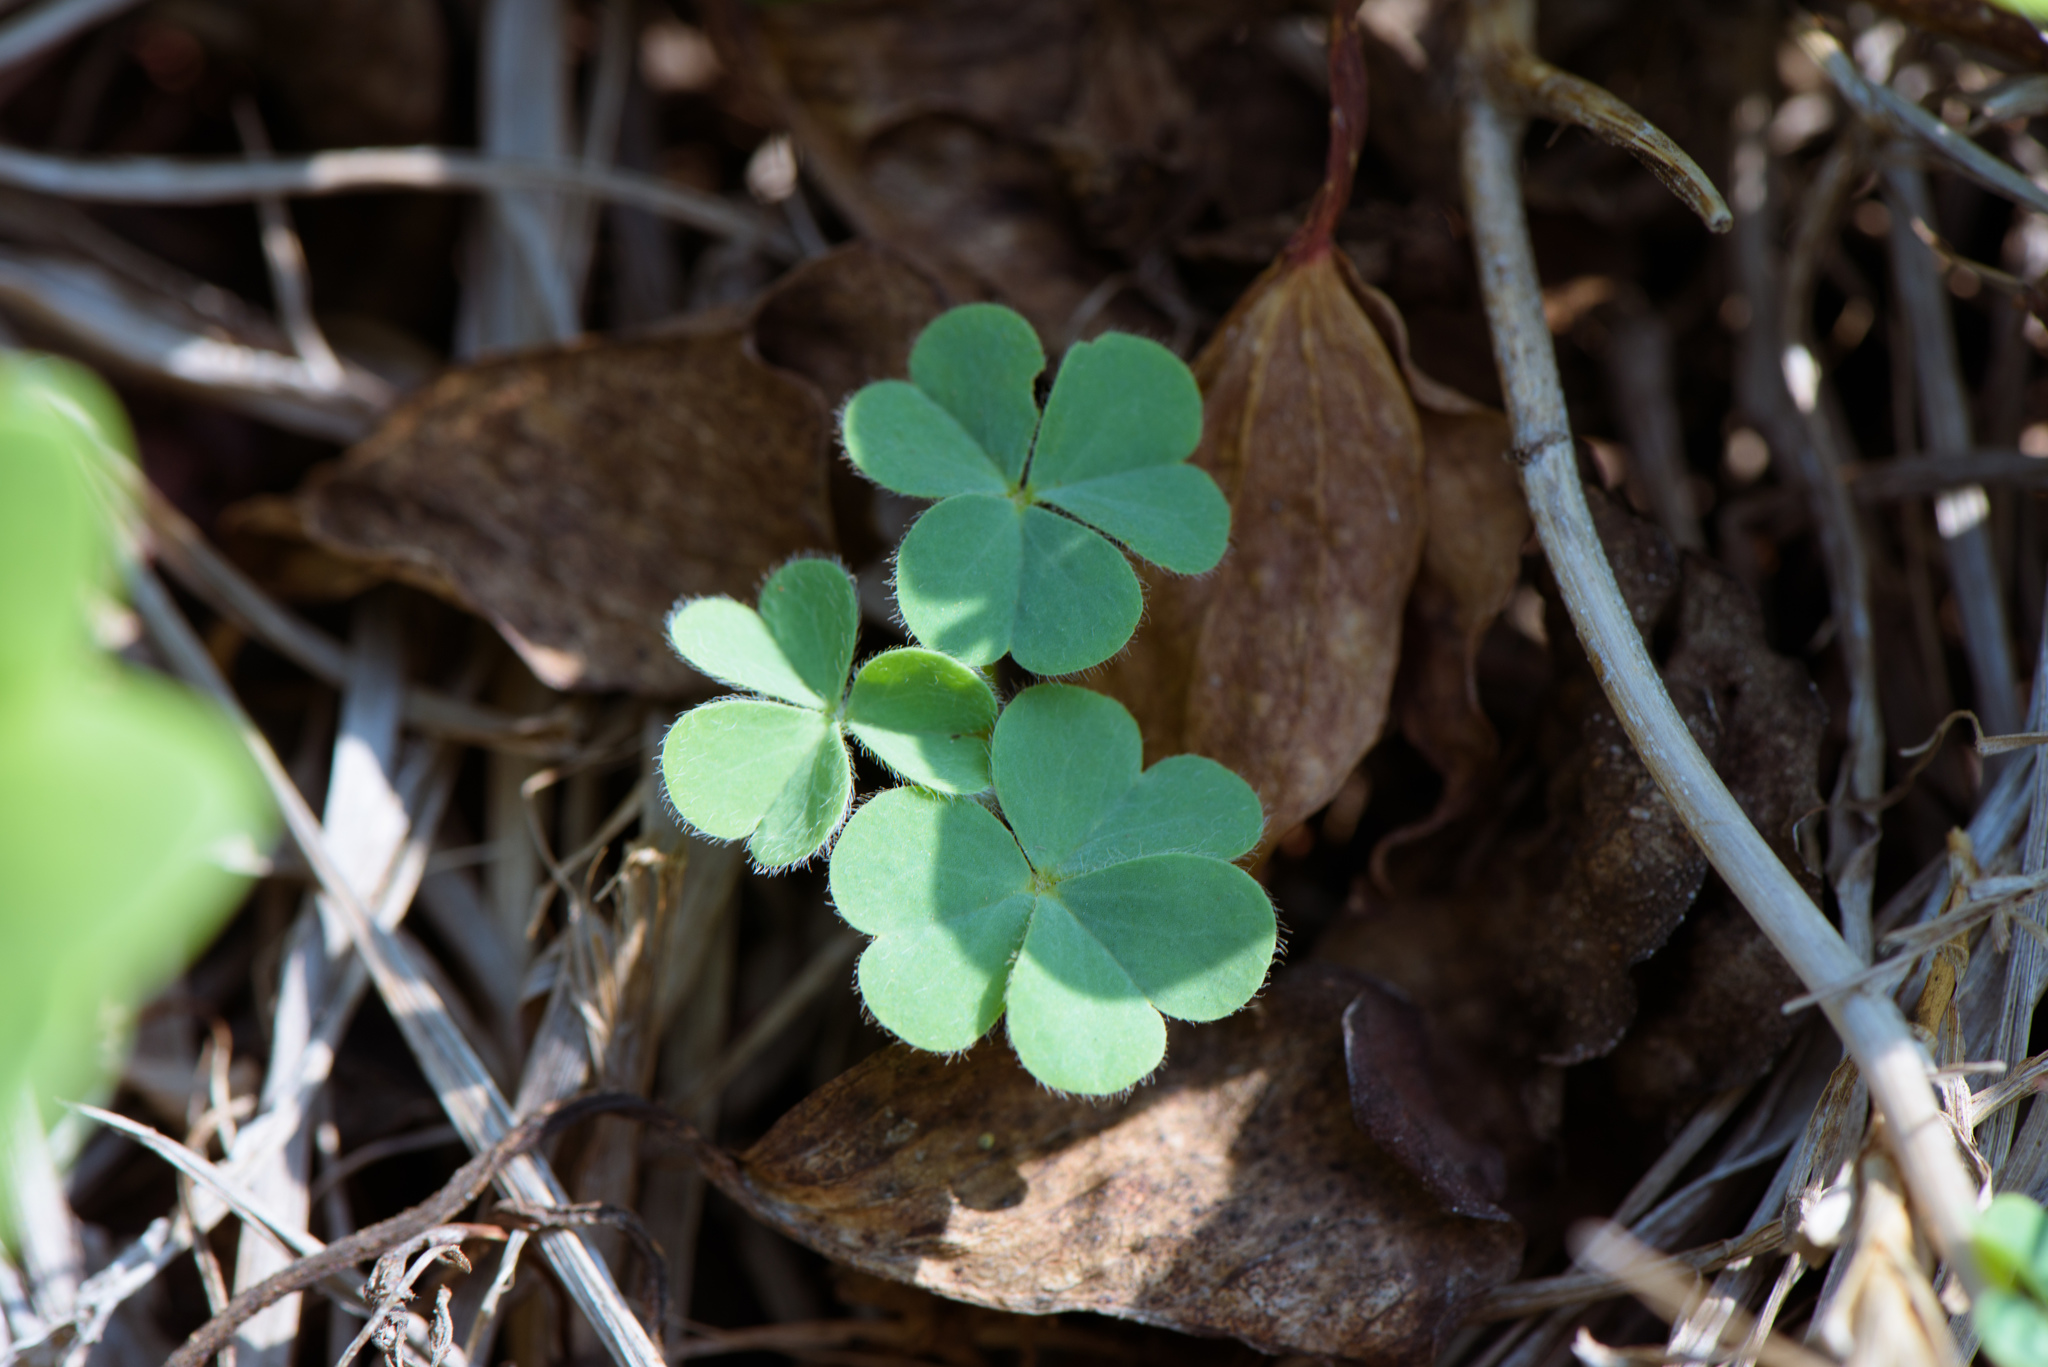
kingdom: Plantae
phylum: Tracheophyta
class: Magnoliopsida
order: Oxalidales
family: Oxalidaceae
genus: Oxalis
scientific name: Oxalis corniculata
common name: Procumbent yellow-sorrel
